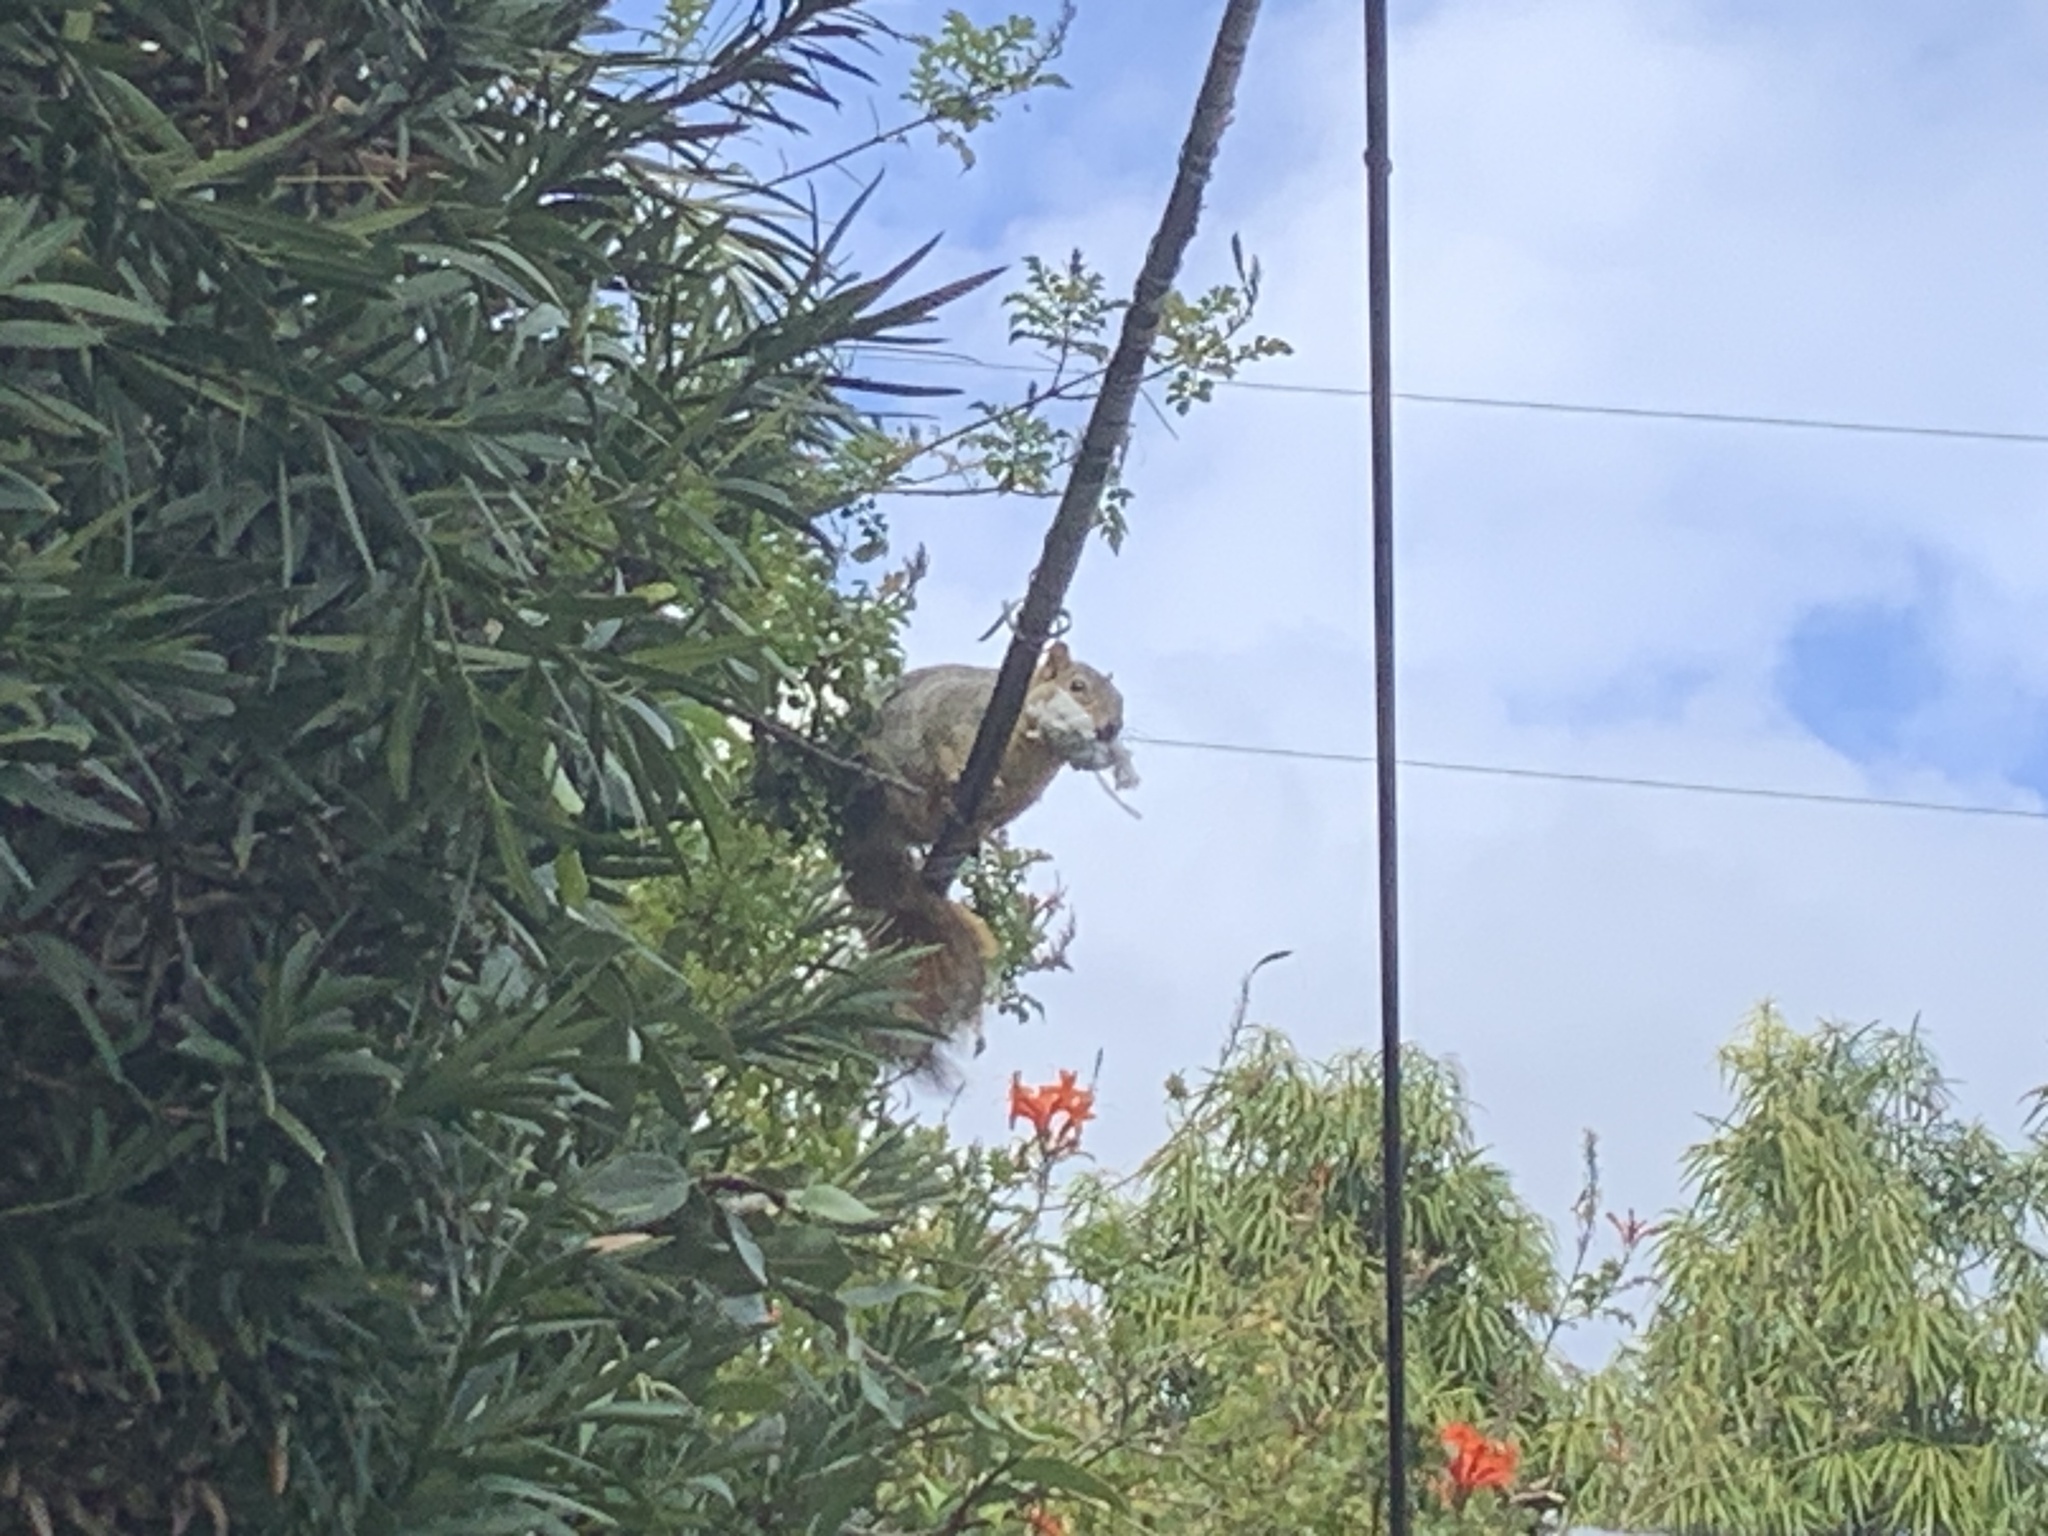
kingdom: Animalia
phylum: Chordata
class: Mammalia
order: Rodentia
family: Sciuridae
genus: Sciurus
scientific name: Sciurus niger
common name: Fox squirrel
